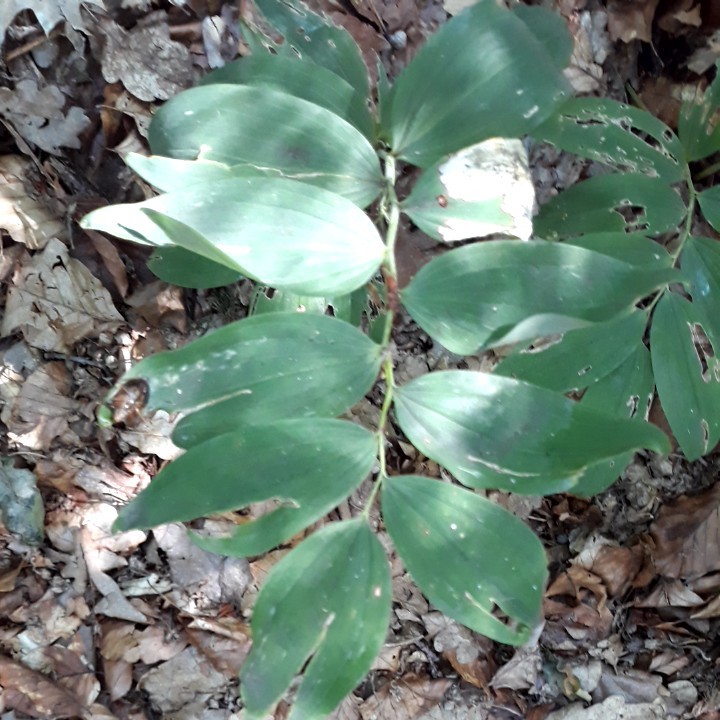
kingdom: Plantae
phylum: Tracheophyta
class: Liliopsida
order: Asparagales
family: Asparagaceae
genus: Polygonatum
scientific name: Polygonatum multiflorum
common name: Solomon's-seal
